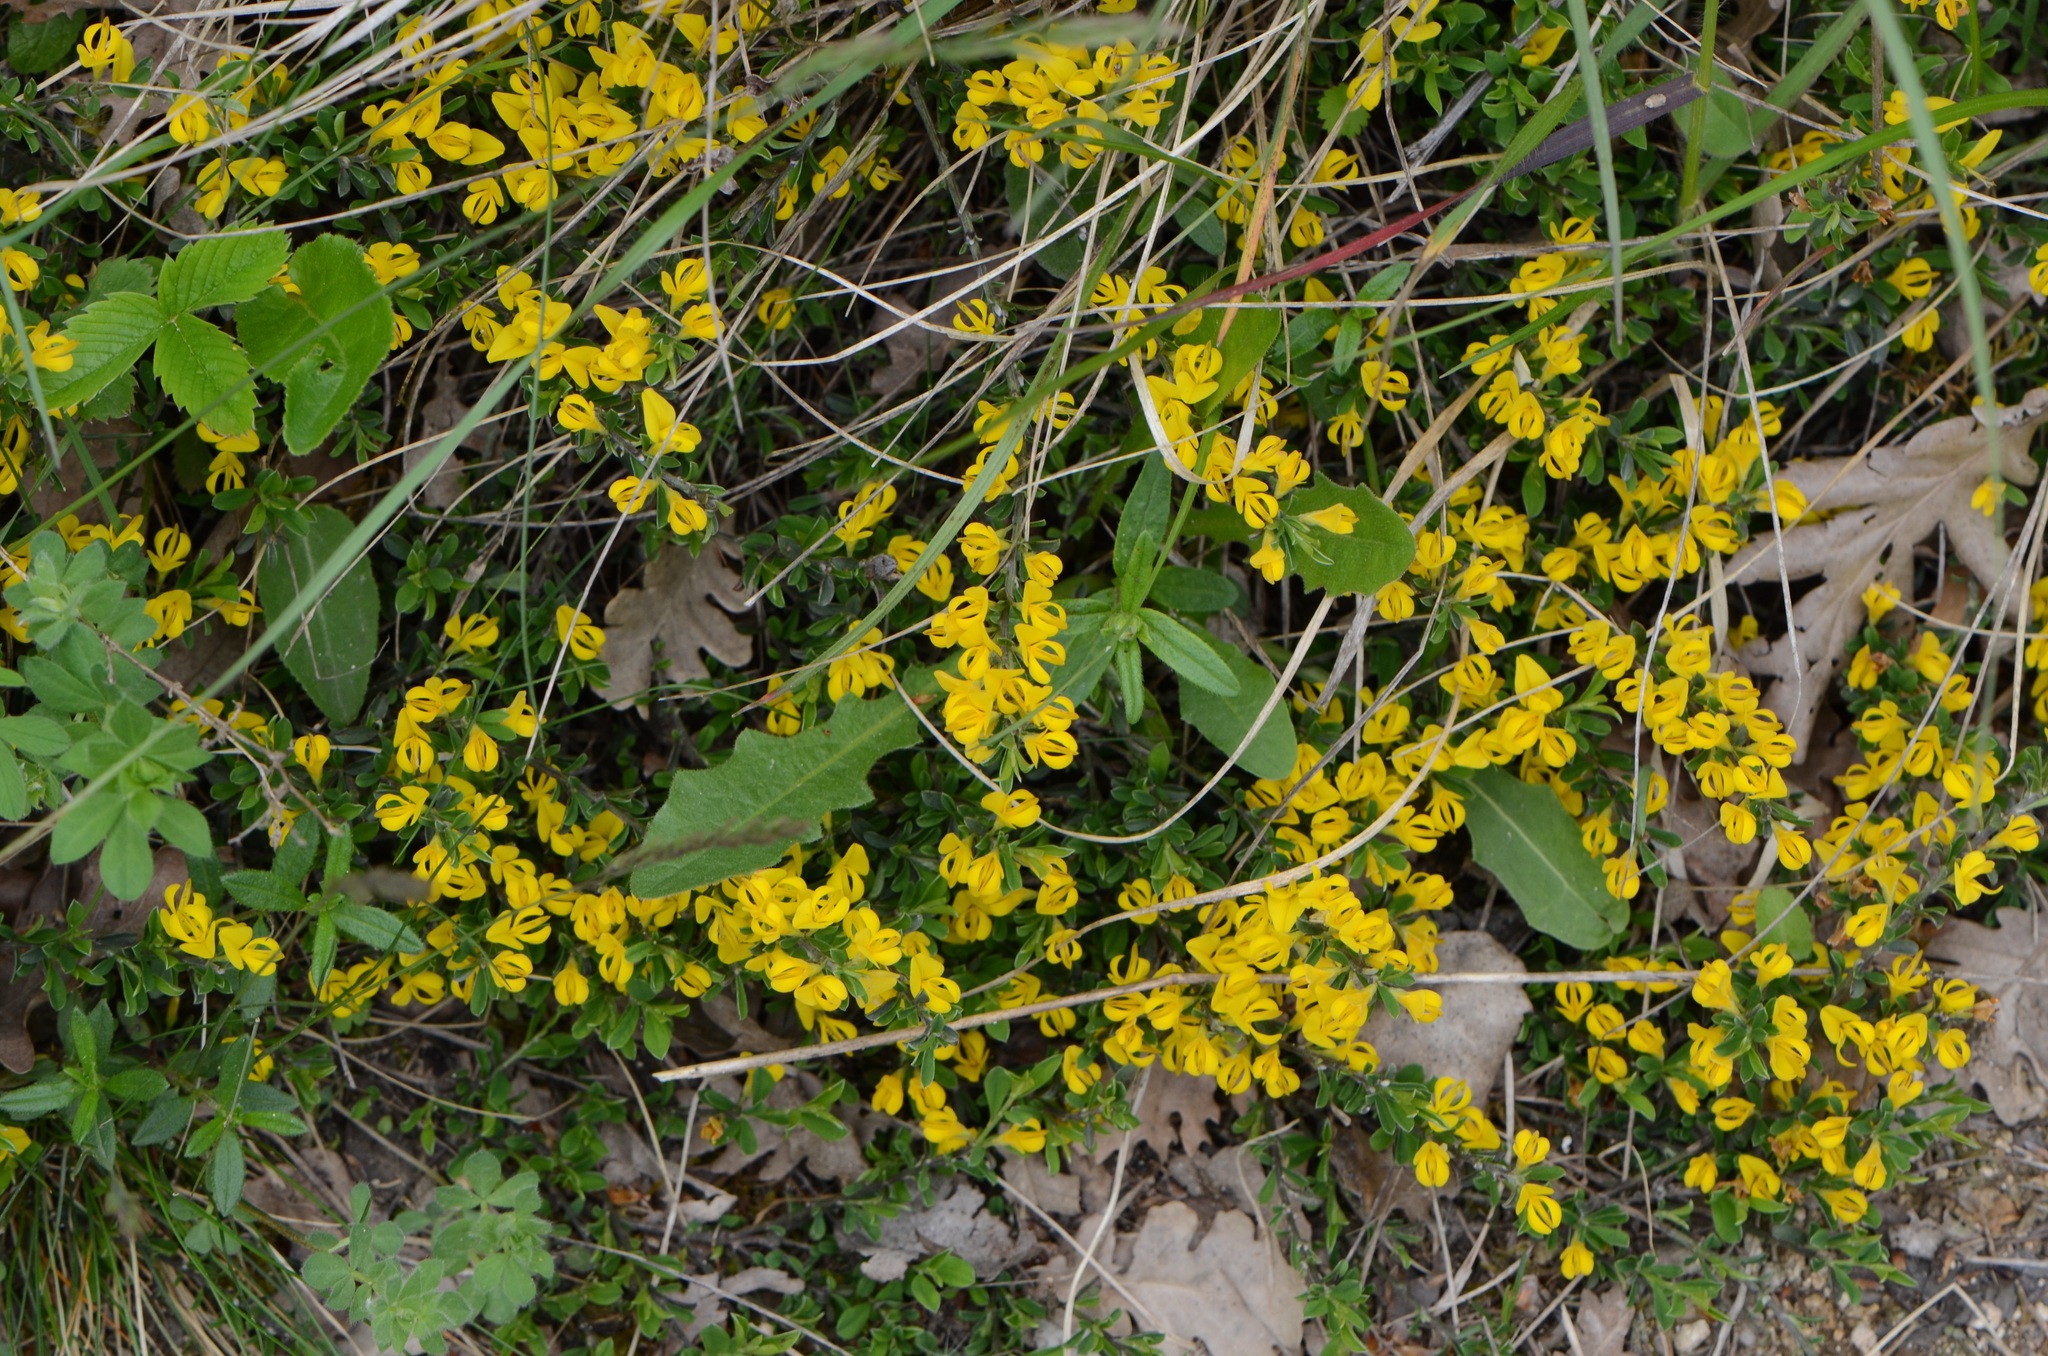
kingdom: Plantae
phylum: Tracheophyta
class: Magnoliopsida
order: Fabales
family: Fabaceae
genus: Genista
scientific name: Genista pilosa
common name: Hairy greenweed
